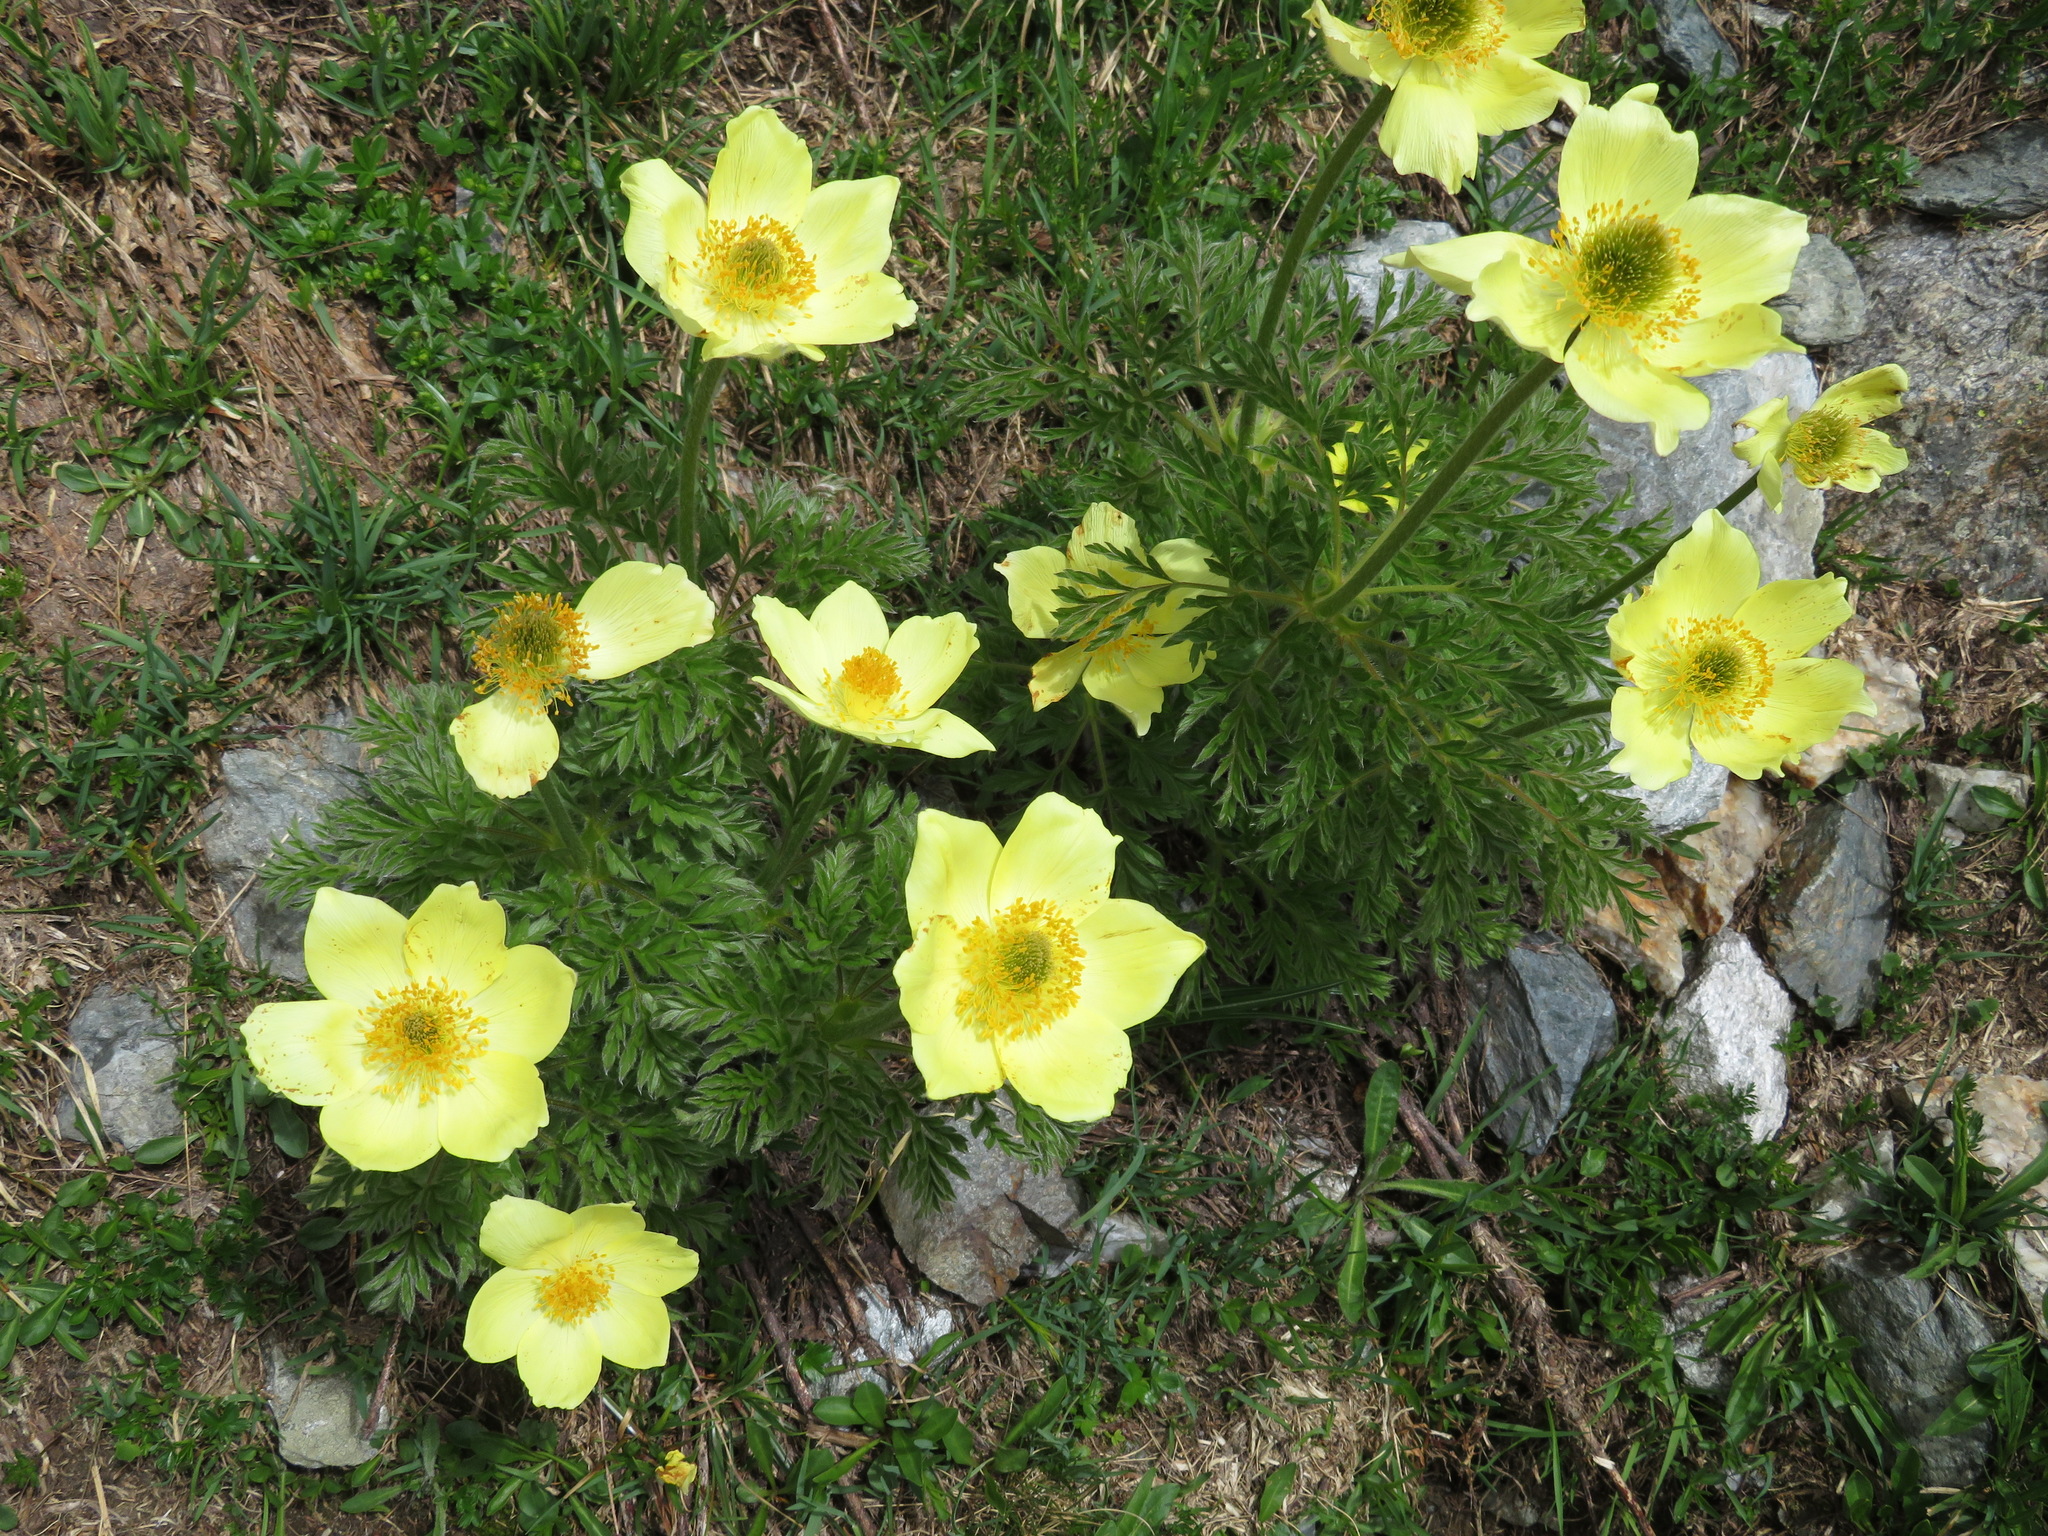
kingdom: Plantae
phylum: Tracheophyta
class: Magnoliopsida
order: Ranunculales
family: Ranunculaceae
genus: Pulsatilla
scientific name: Pulsatilla alpina
